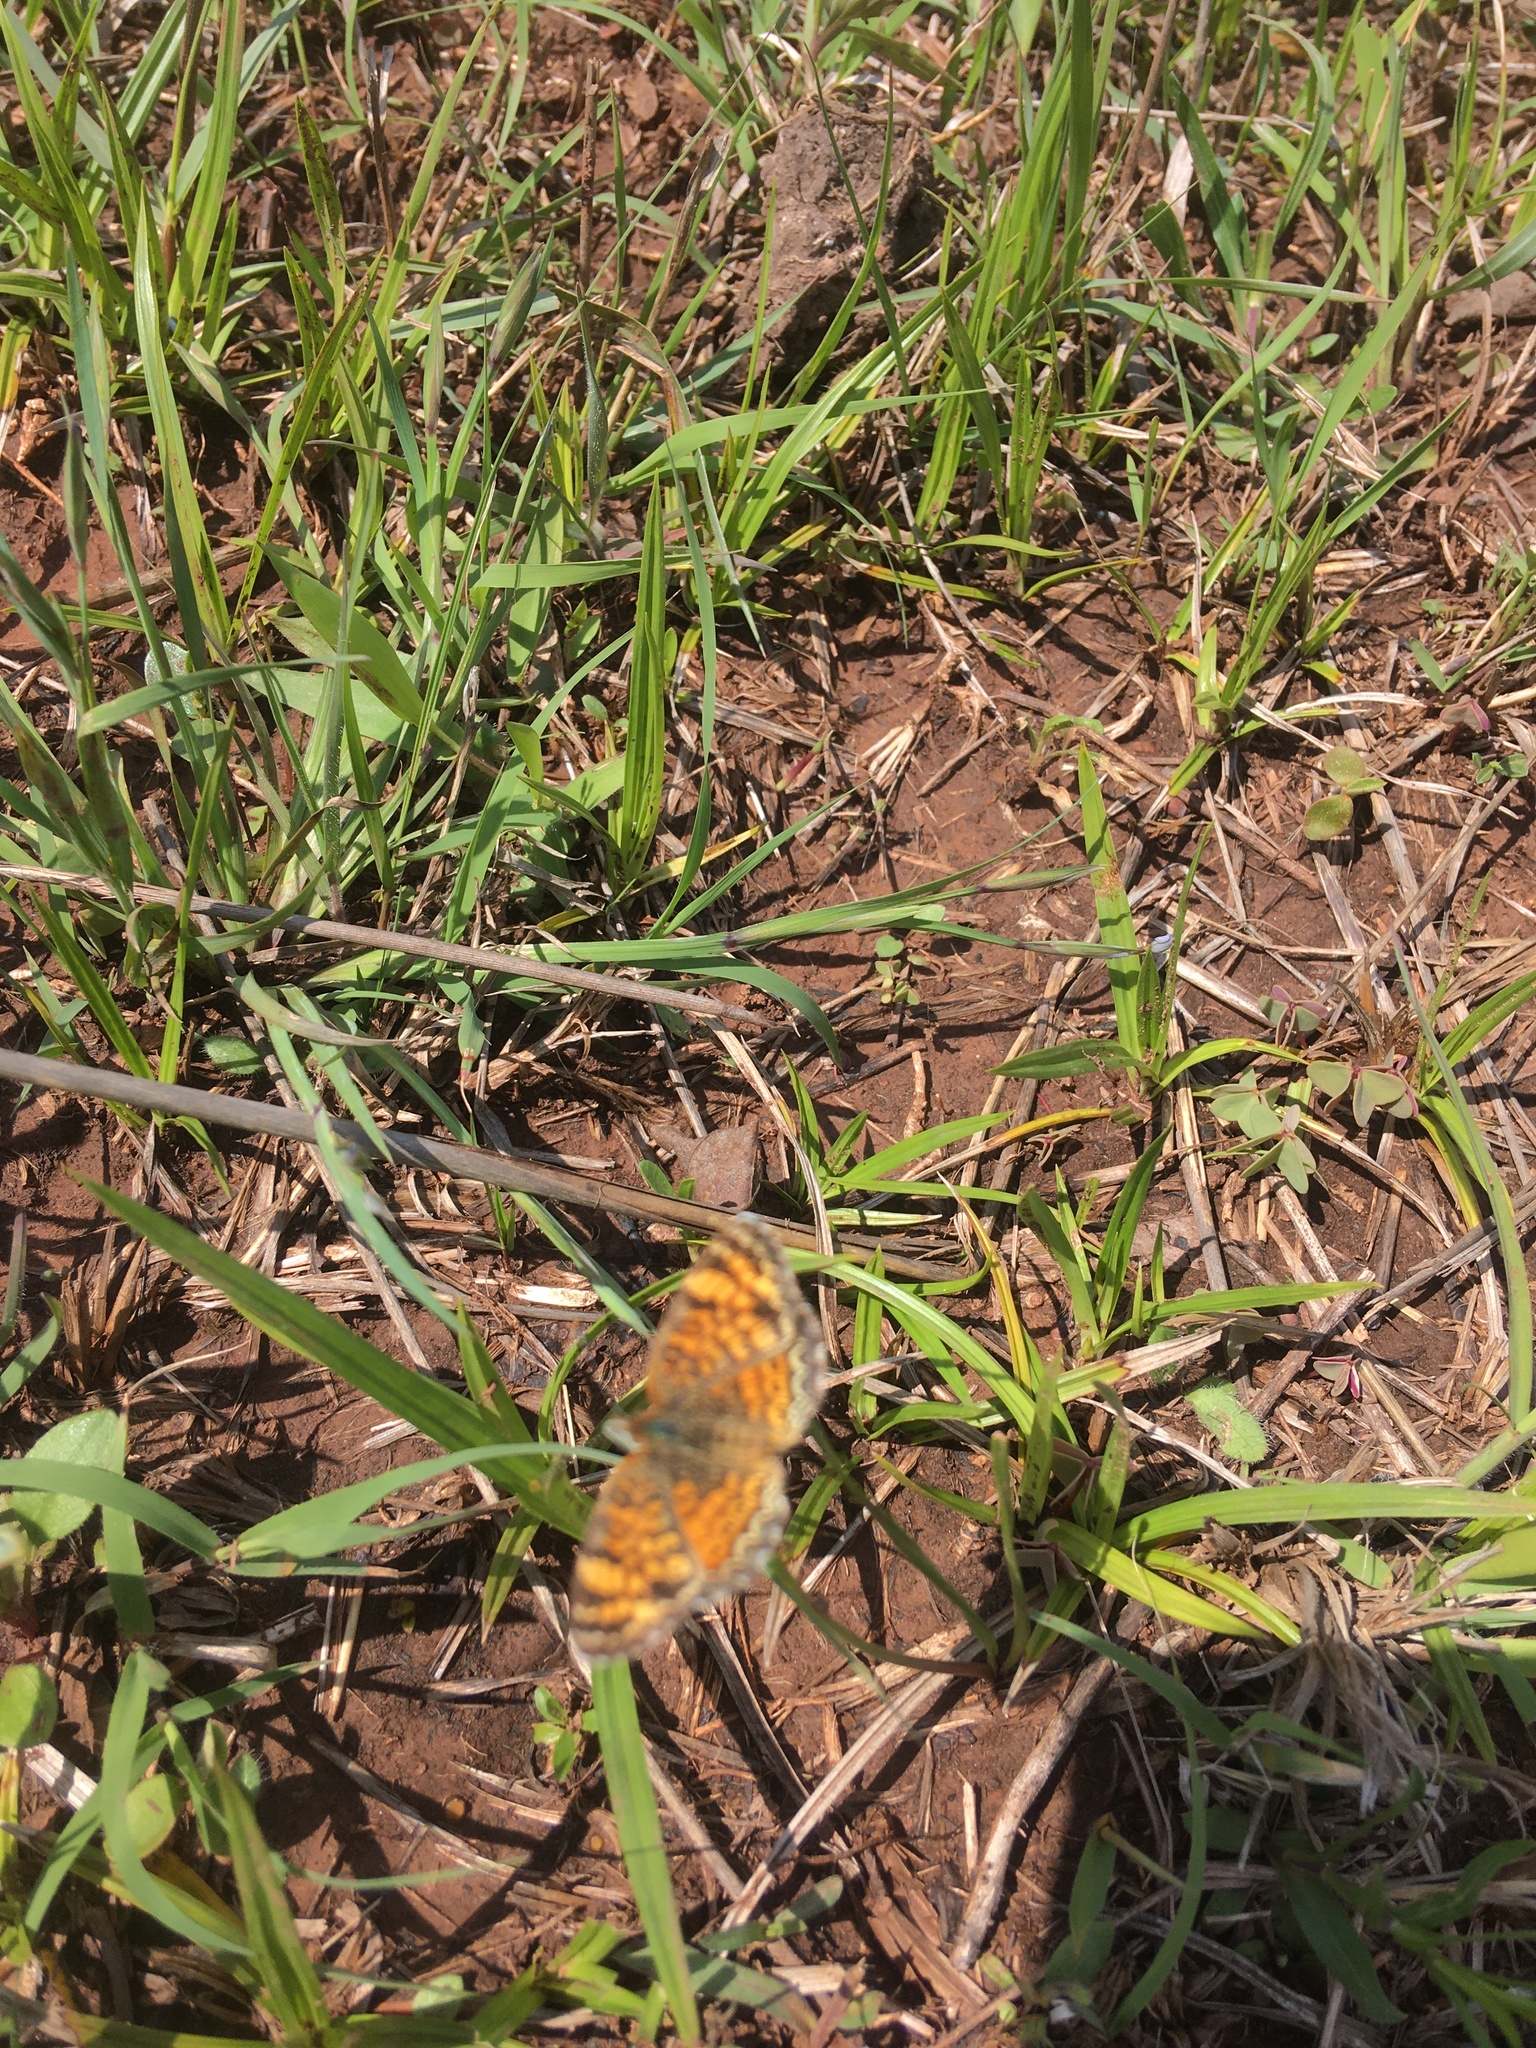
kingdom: Animalia
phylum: Arthropoda
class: Insecta
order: Lepidoptera
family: Nymphalidae
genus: Phyciodes
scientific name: Phyciodes tharos
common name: Pearl crescent
